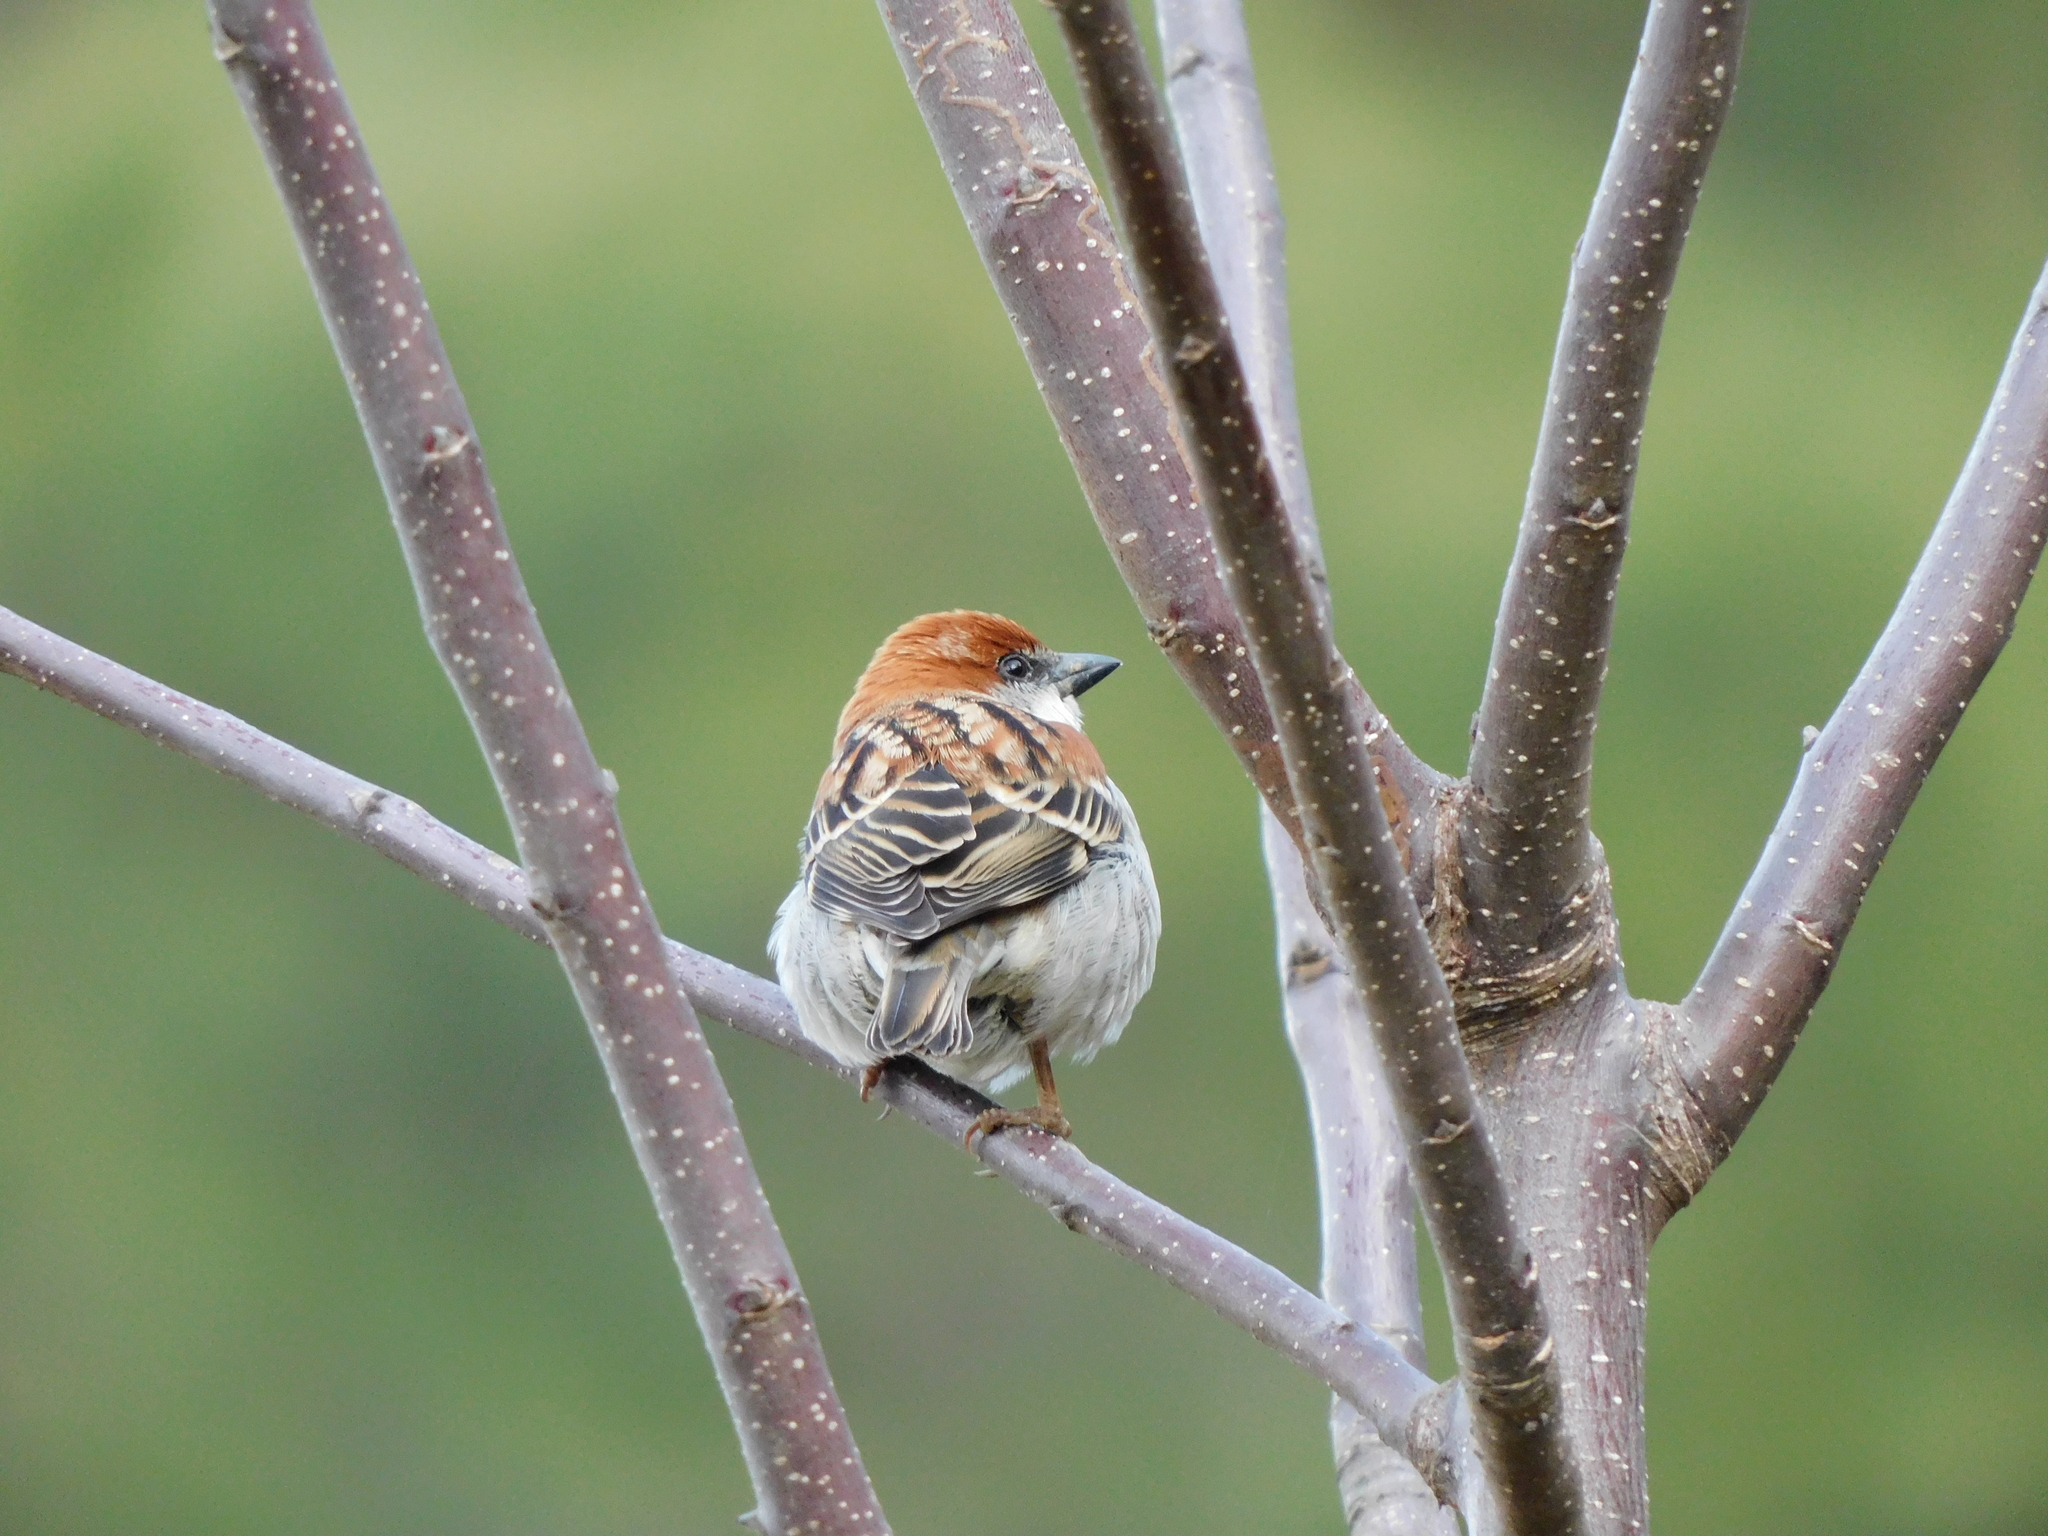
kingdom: Animalia
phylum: Chordata
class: Aves
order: Passeriformes
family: Passeridae
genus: Passer
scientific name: Passer cinnamomeus
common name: Russet sparrow
